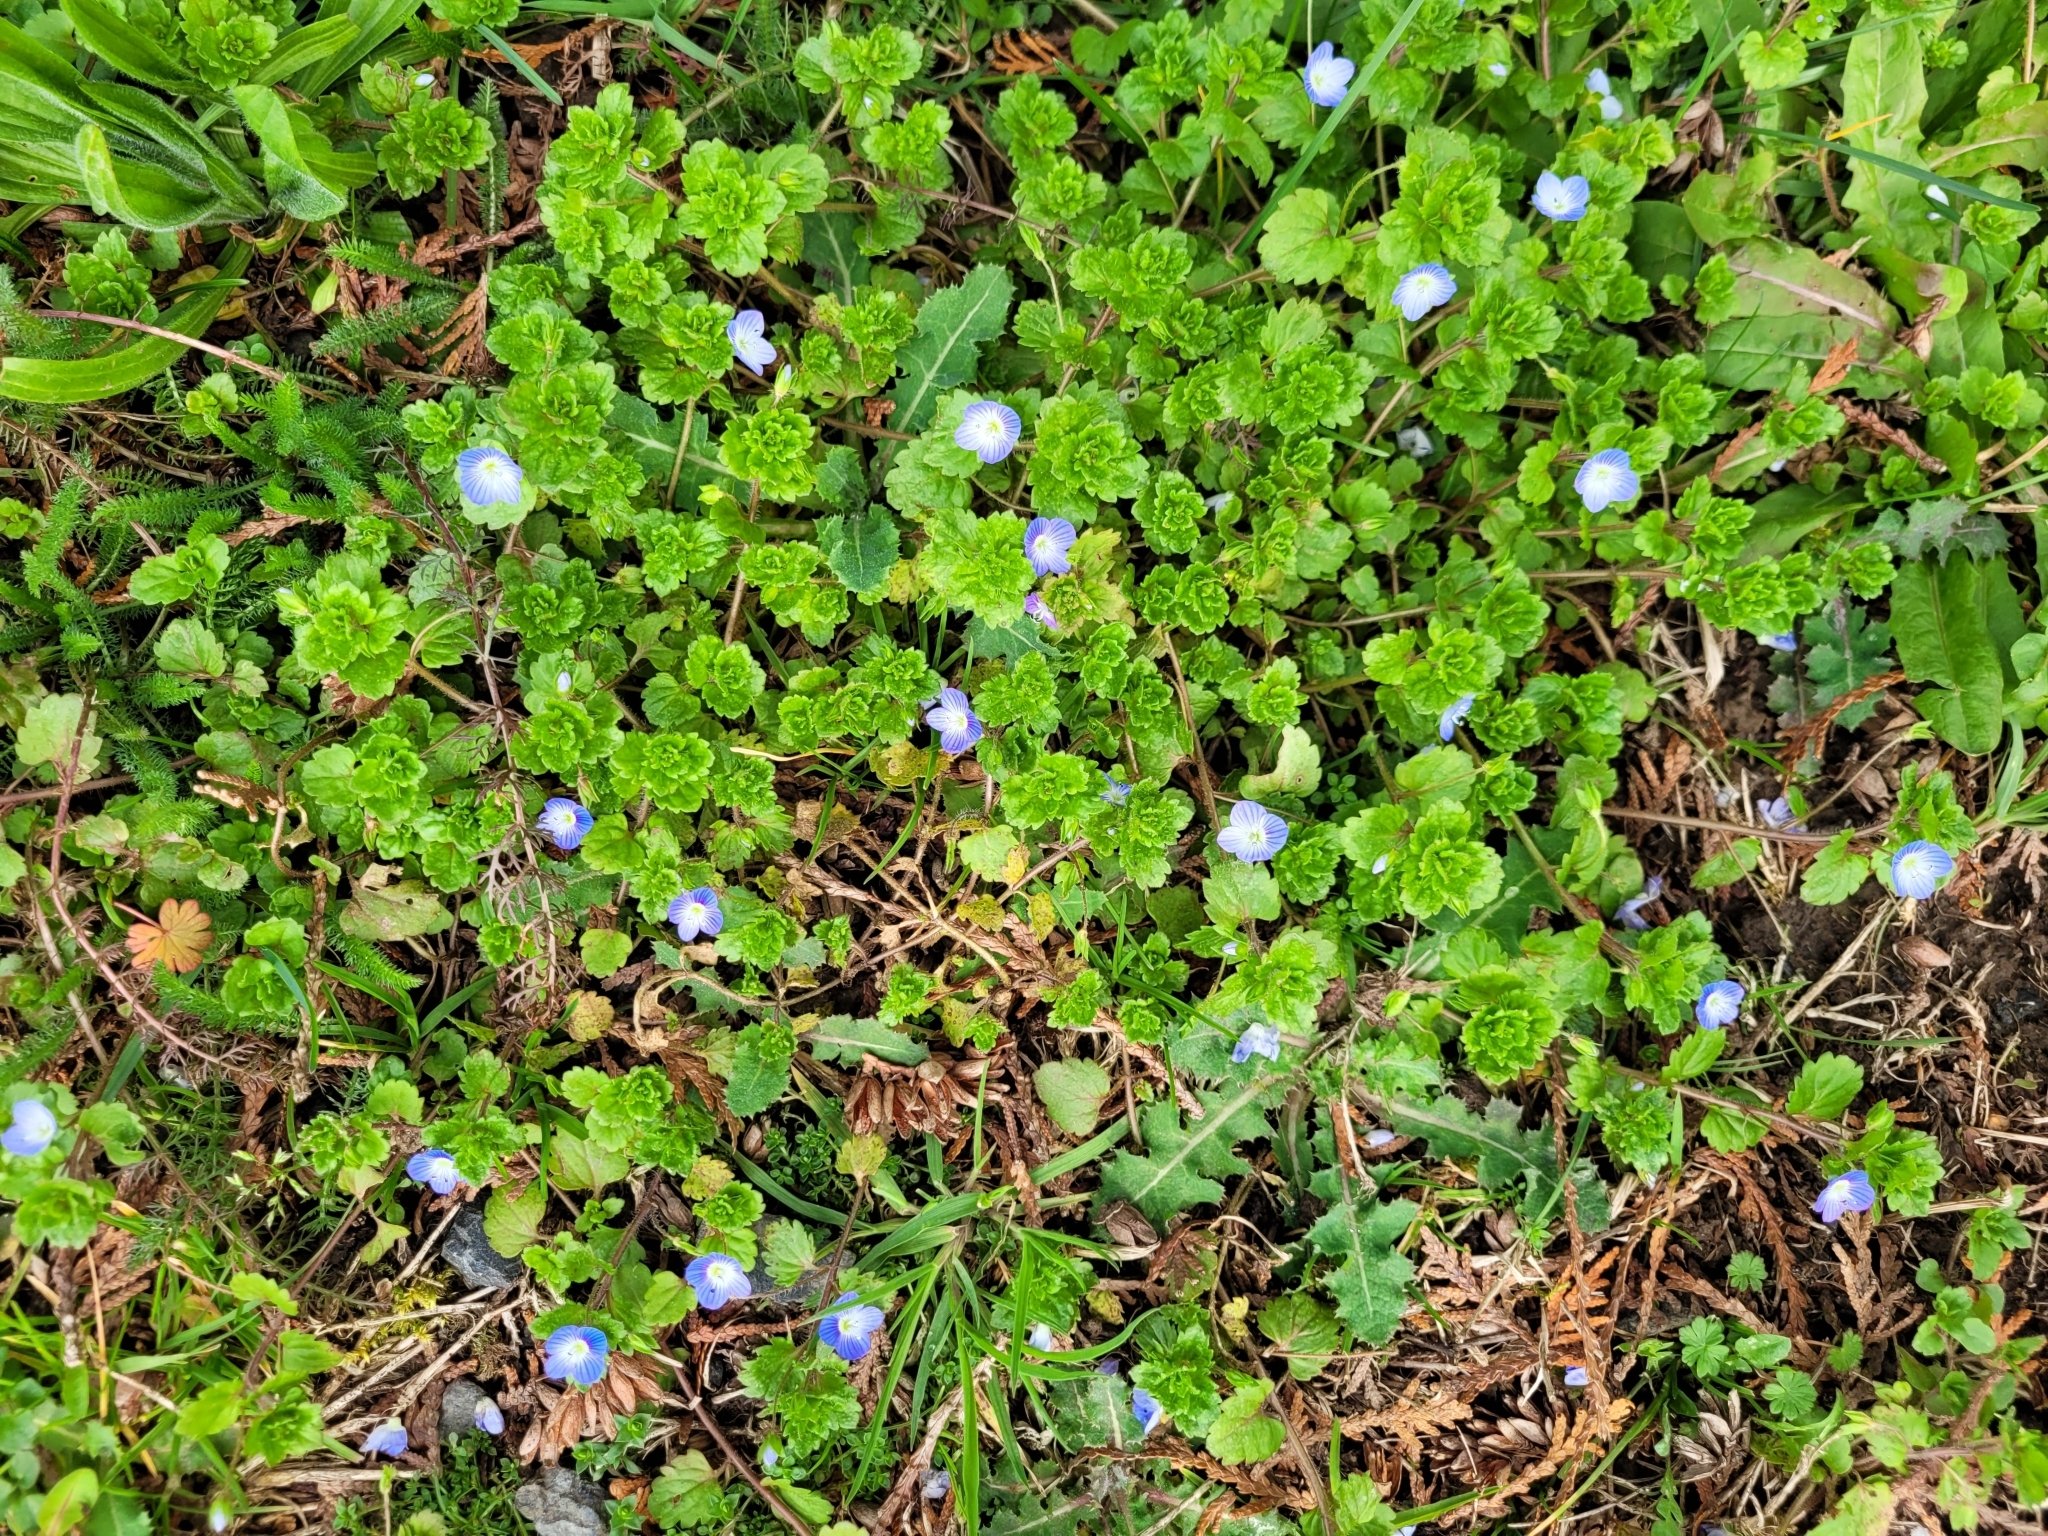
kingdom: Plantae
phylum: Tracheophyta
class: Magnoliopsida
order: Lamiales
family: Plantaginaceae
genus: Veronica
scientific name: Veronica persica
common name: Common field-speedwell
